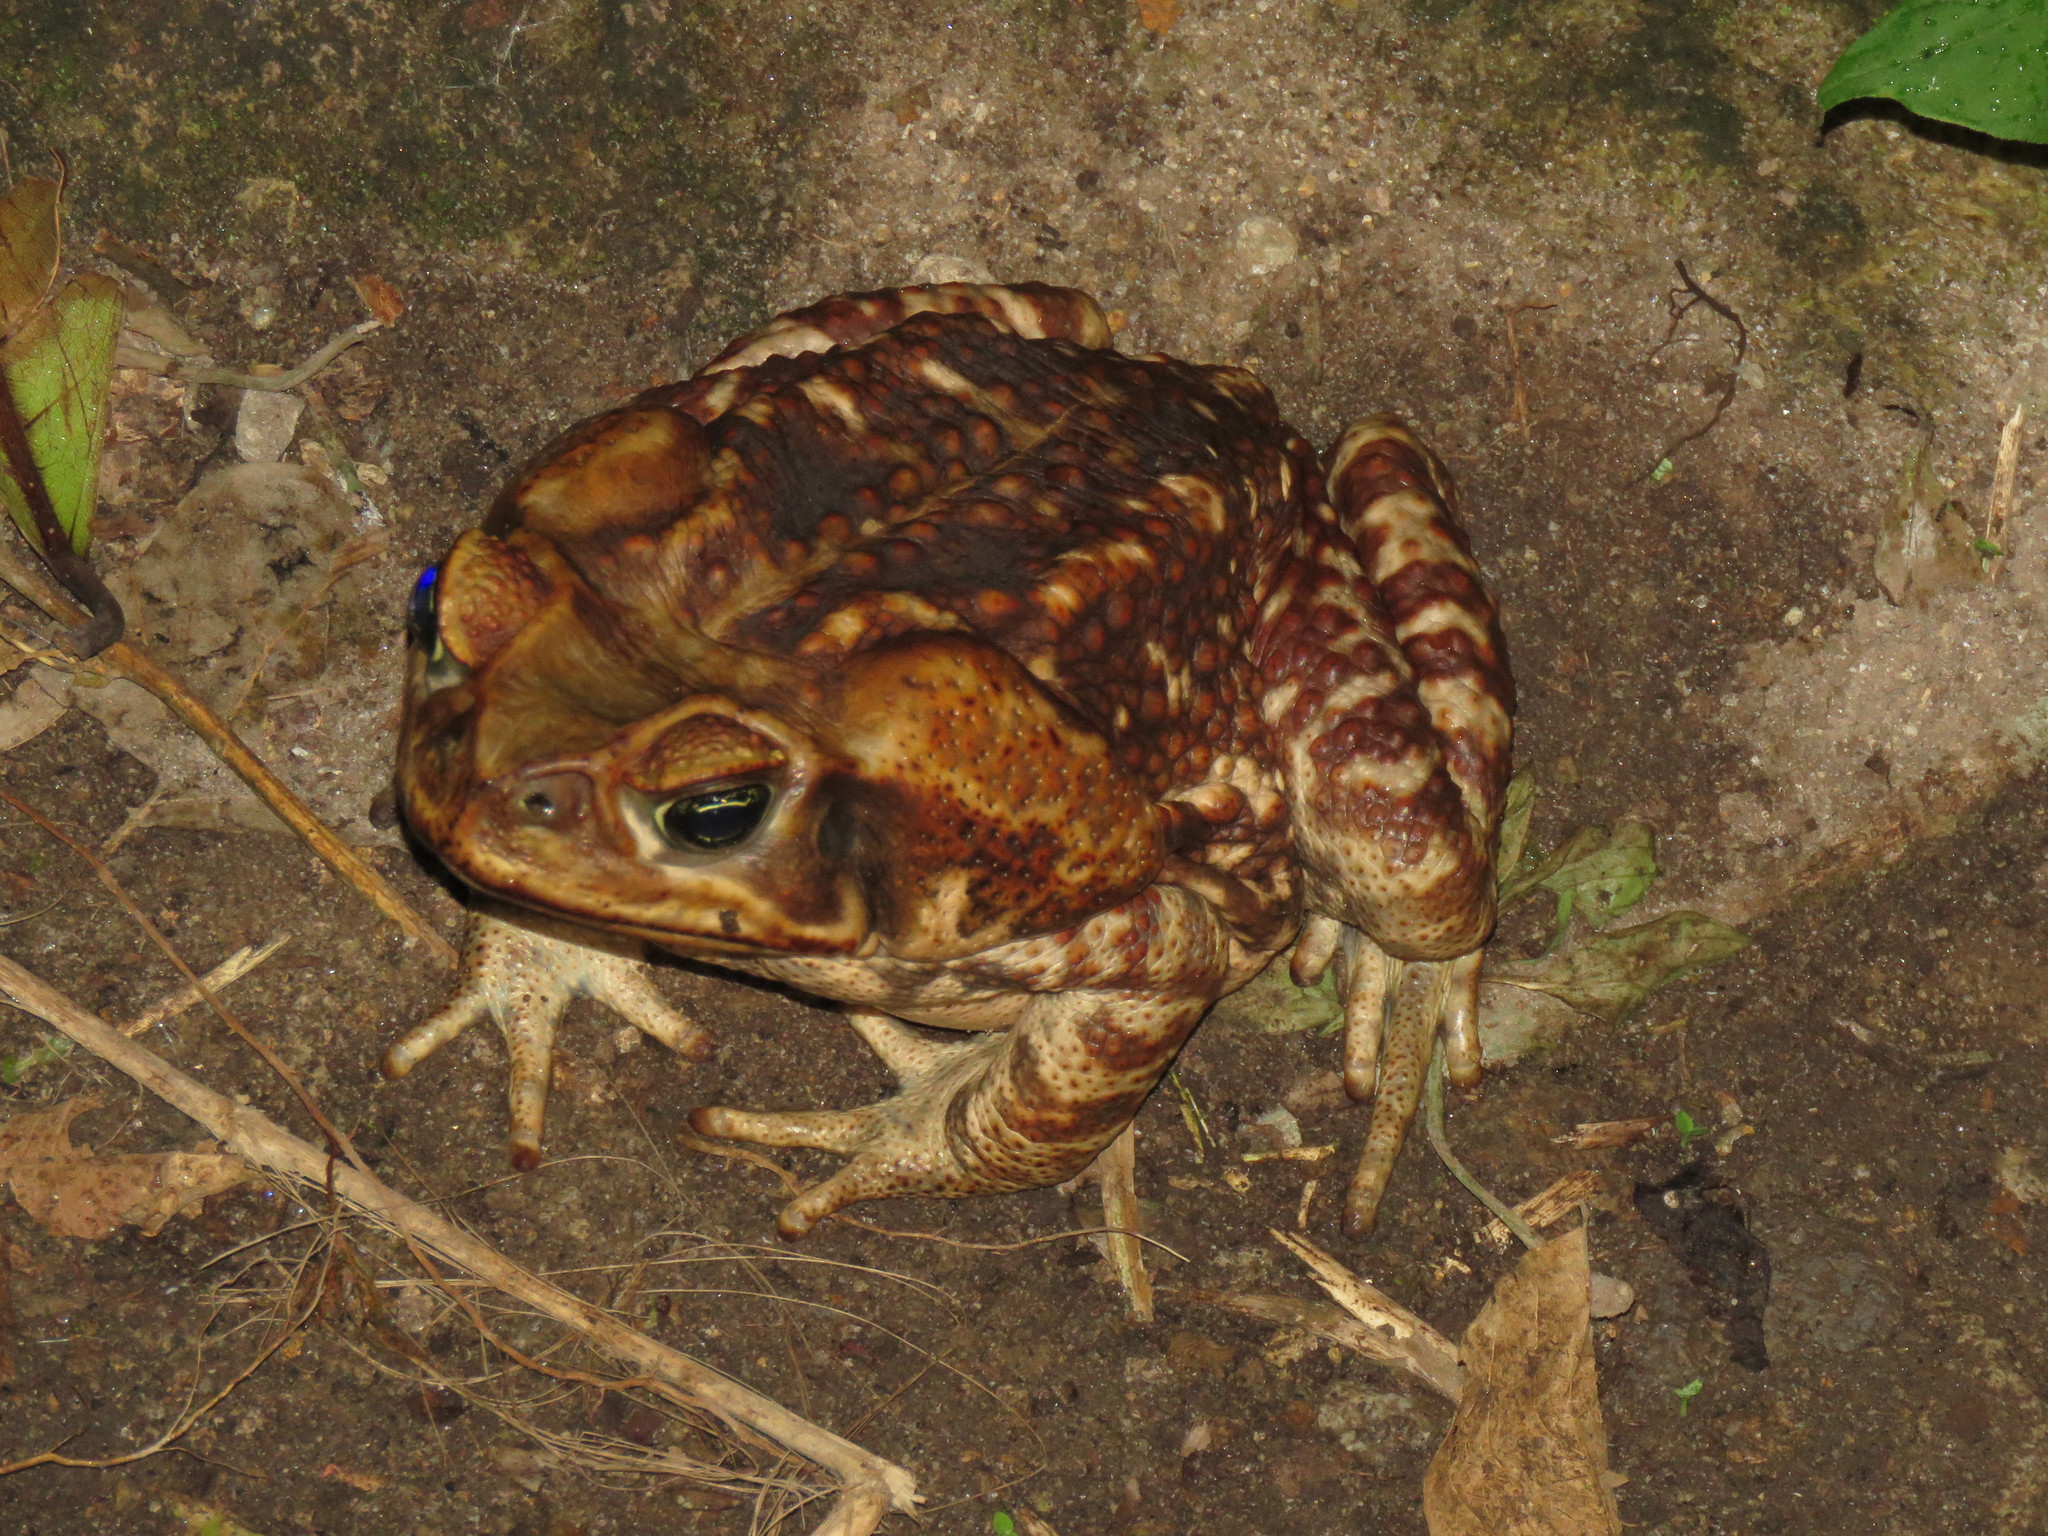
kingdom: Animalia
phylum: Chordata
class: Amphibia
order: Anura
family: Bufonidae
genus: Rhinella
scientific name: Rhinella horribilis
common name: Mesoamerican cane toad
